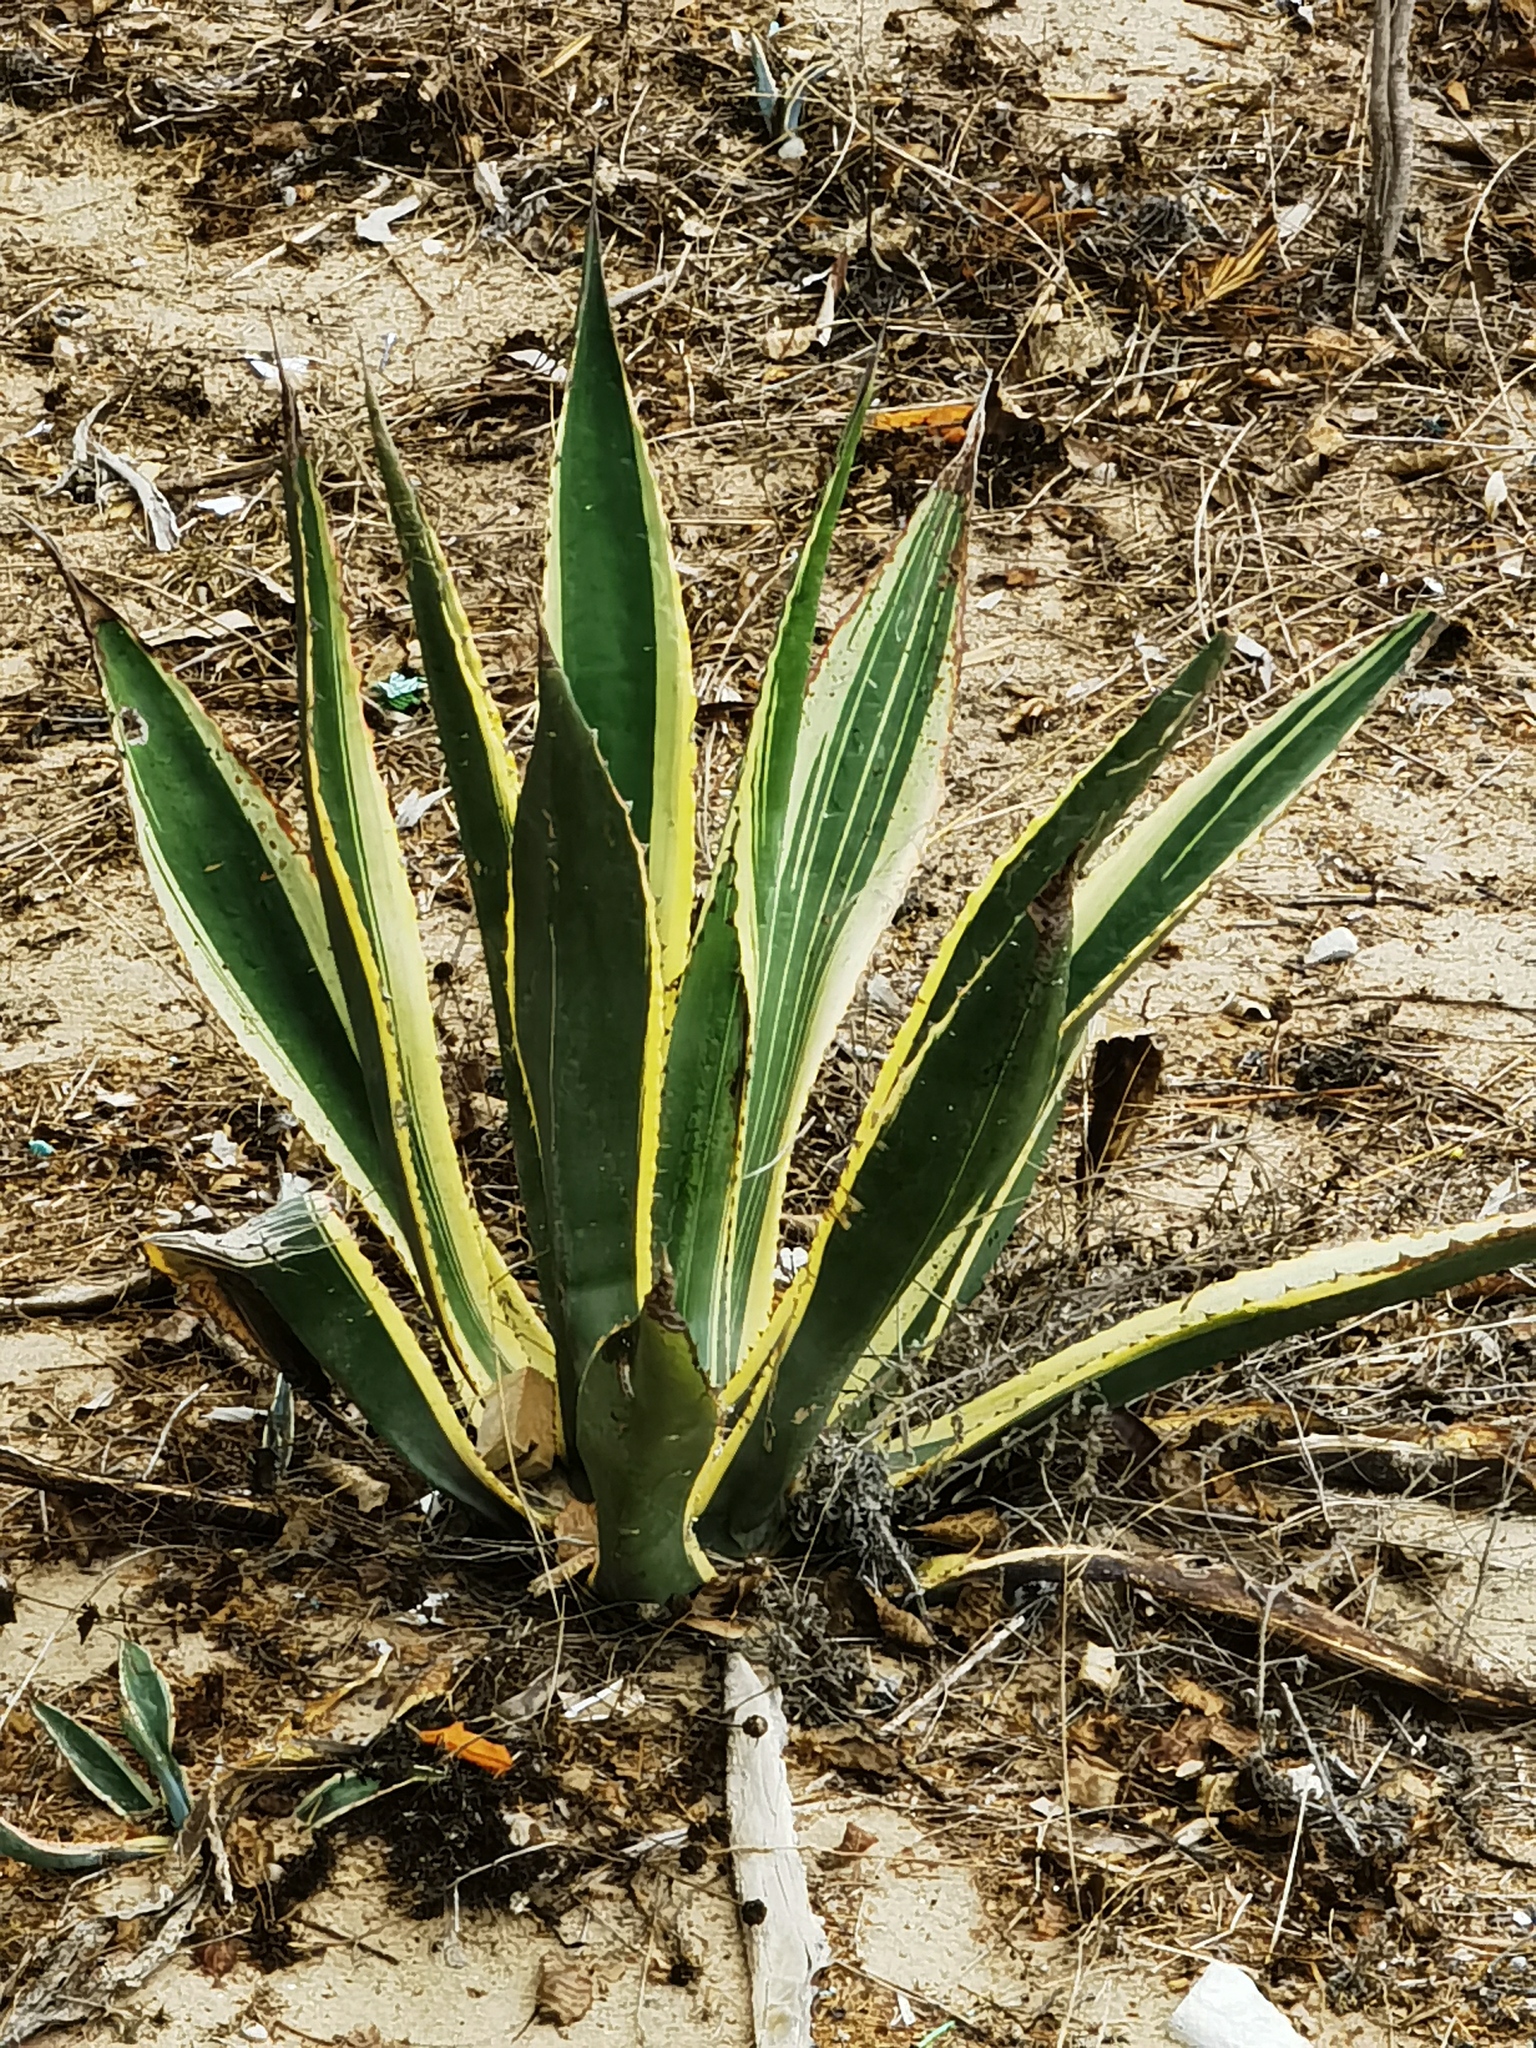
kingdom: Plantae
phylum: Tracheophyta
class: Liliopsida
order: Asparagales
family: Asparagaceae
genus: Agave
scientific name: Agave americana
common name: Centuryplant
